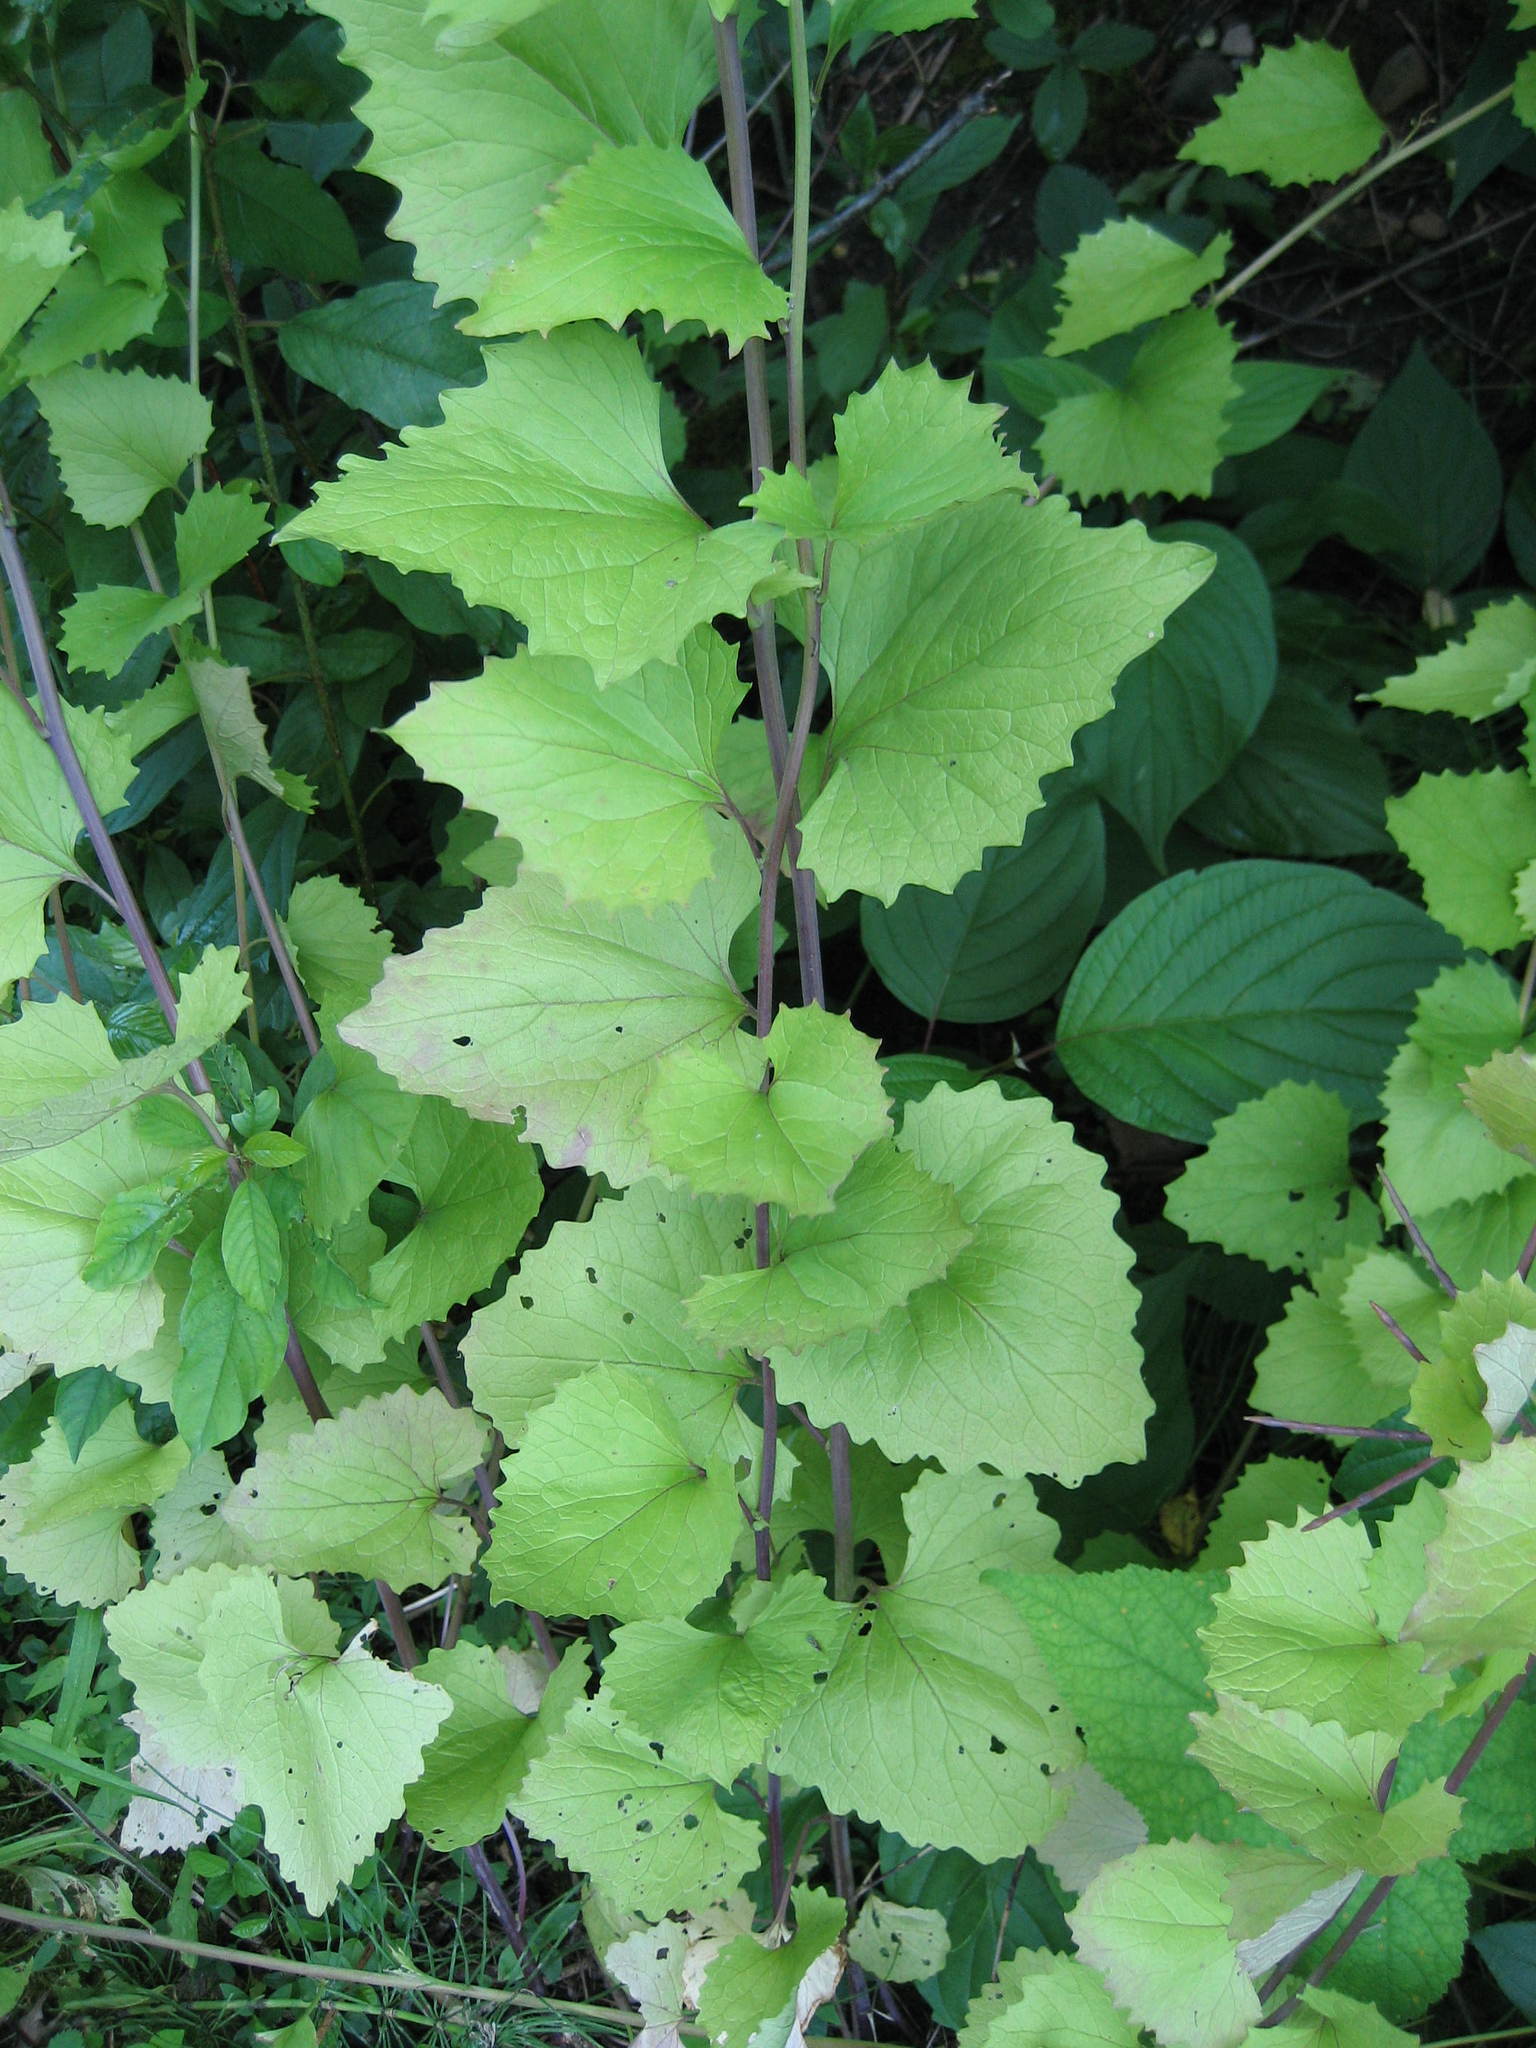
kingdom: Plantae
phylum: Tracheophyta
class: Magnoliopsida
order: Brassicales
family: Brassicaceae
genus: Alliaria
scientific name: Alliaria petiolata
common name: Garlic mustard
